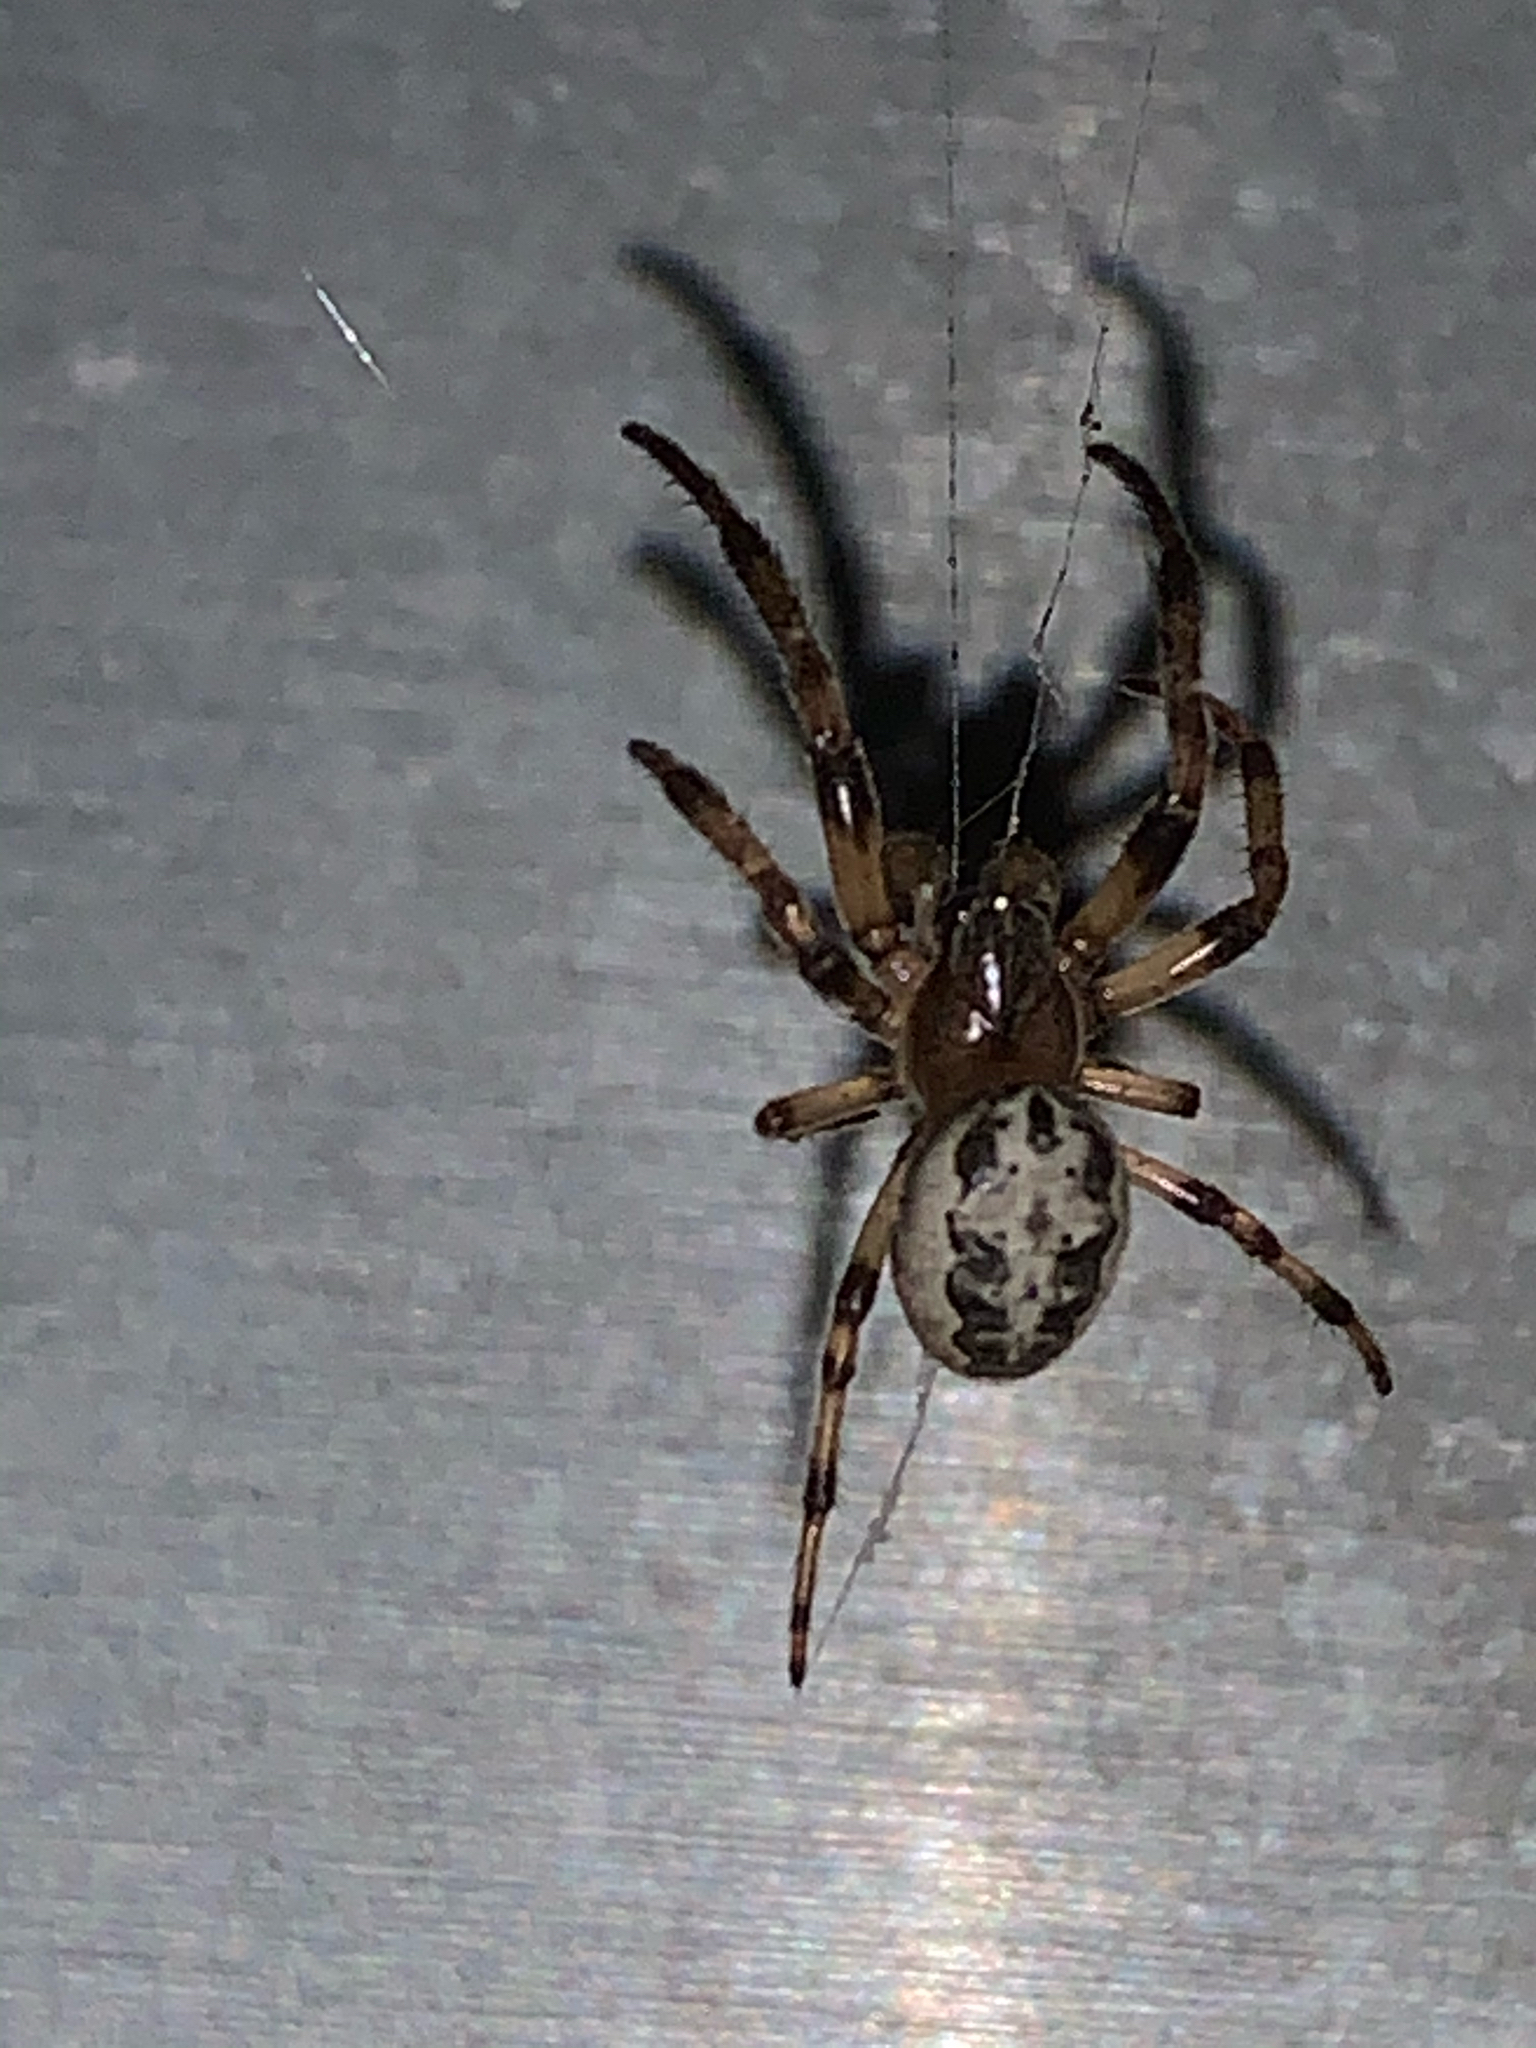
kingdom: Animalia
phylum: Arthropoda
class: Arachnida
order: Araneae
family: Araneidae
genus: Larinioides
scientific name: Larinioides cornutus
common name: Furrow orbweaver
